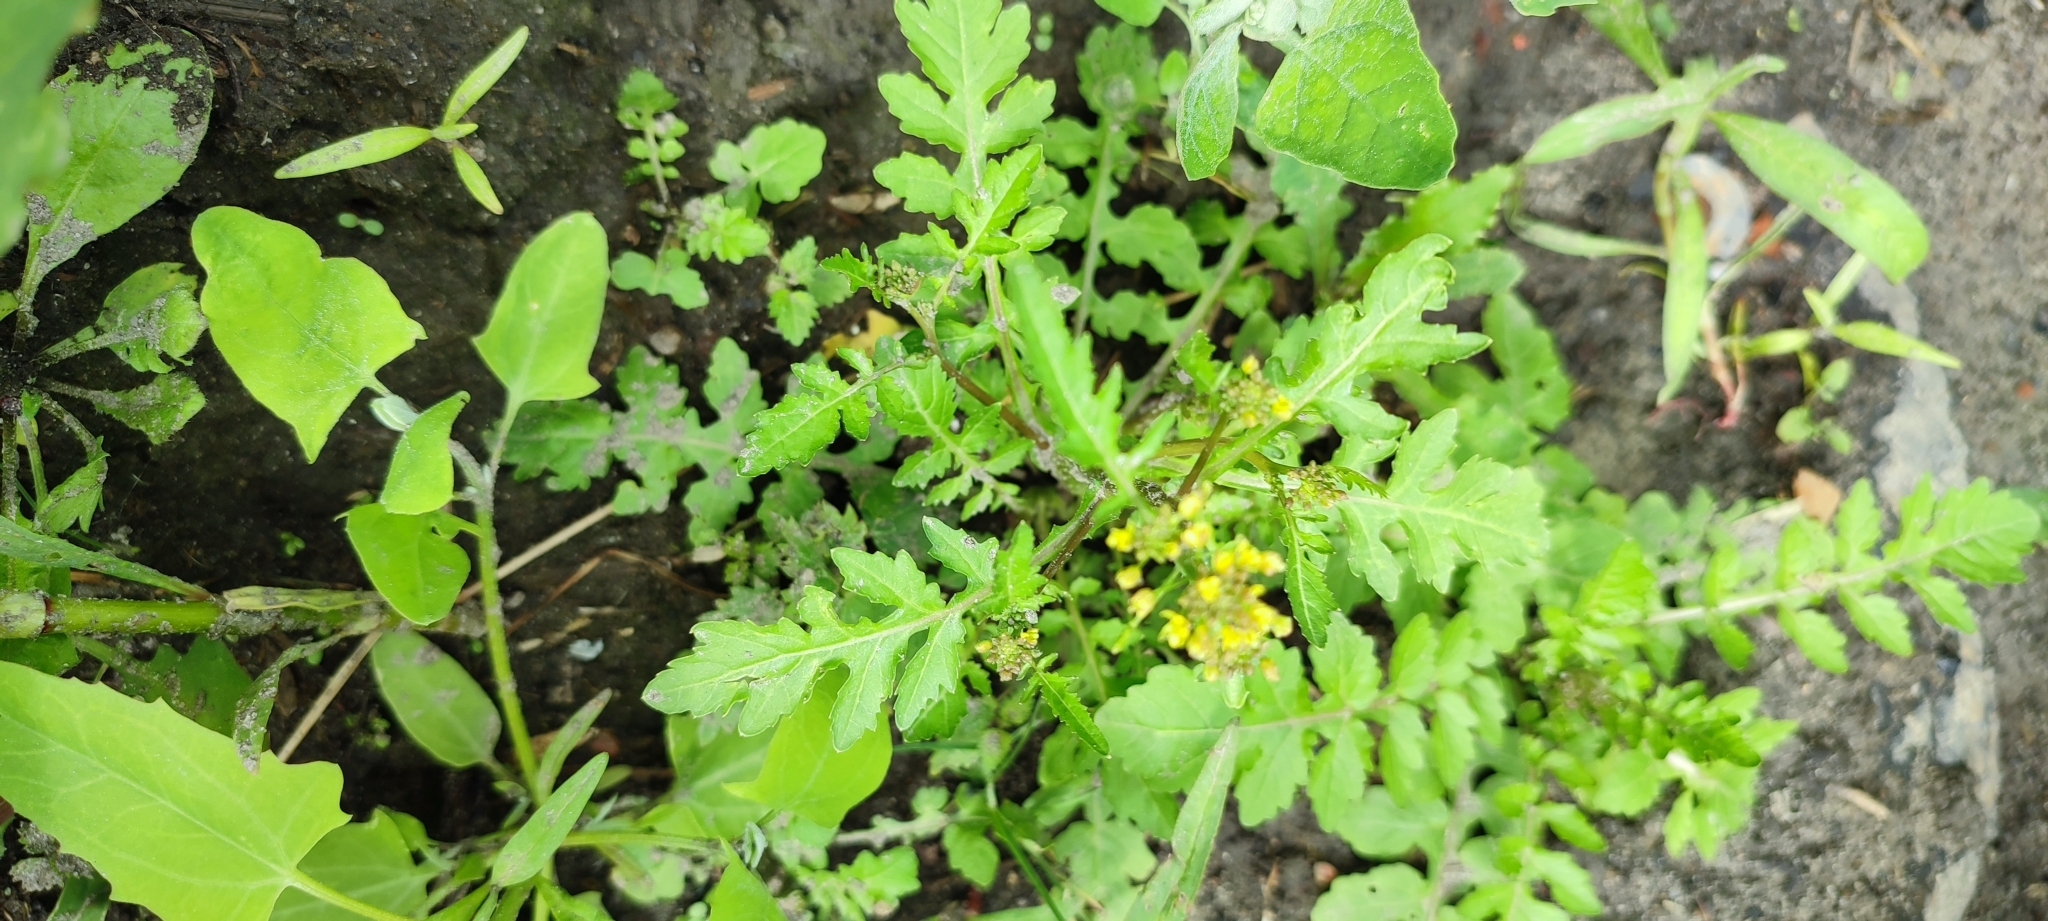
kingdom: Plantae
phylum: Tracheophyta
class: Magnoliopsida
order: Brassicales
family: Brassicaceae
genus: Rorippa
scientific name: Rorippa palustris
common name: Marsh yellow-cress
